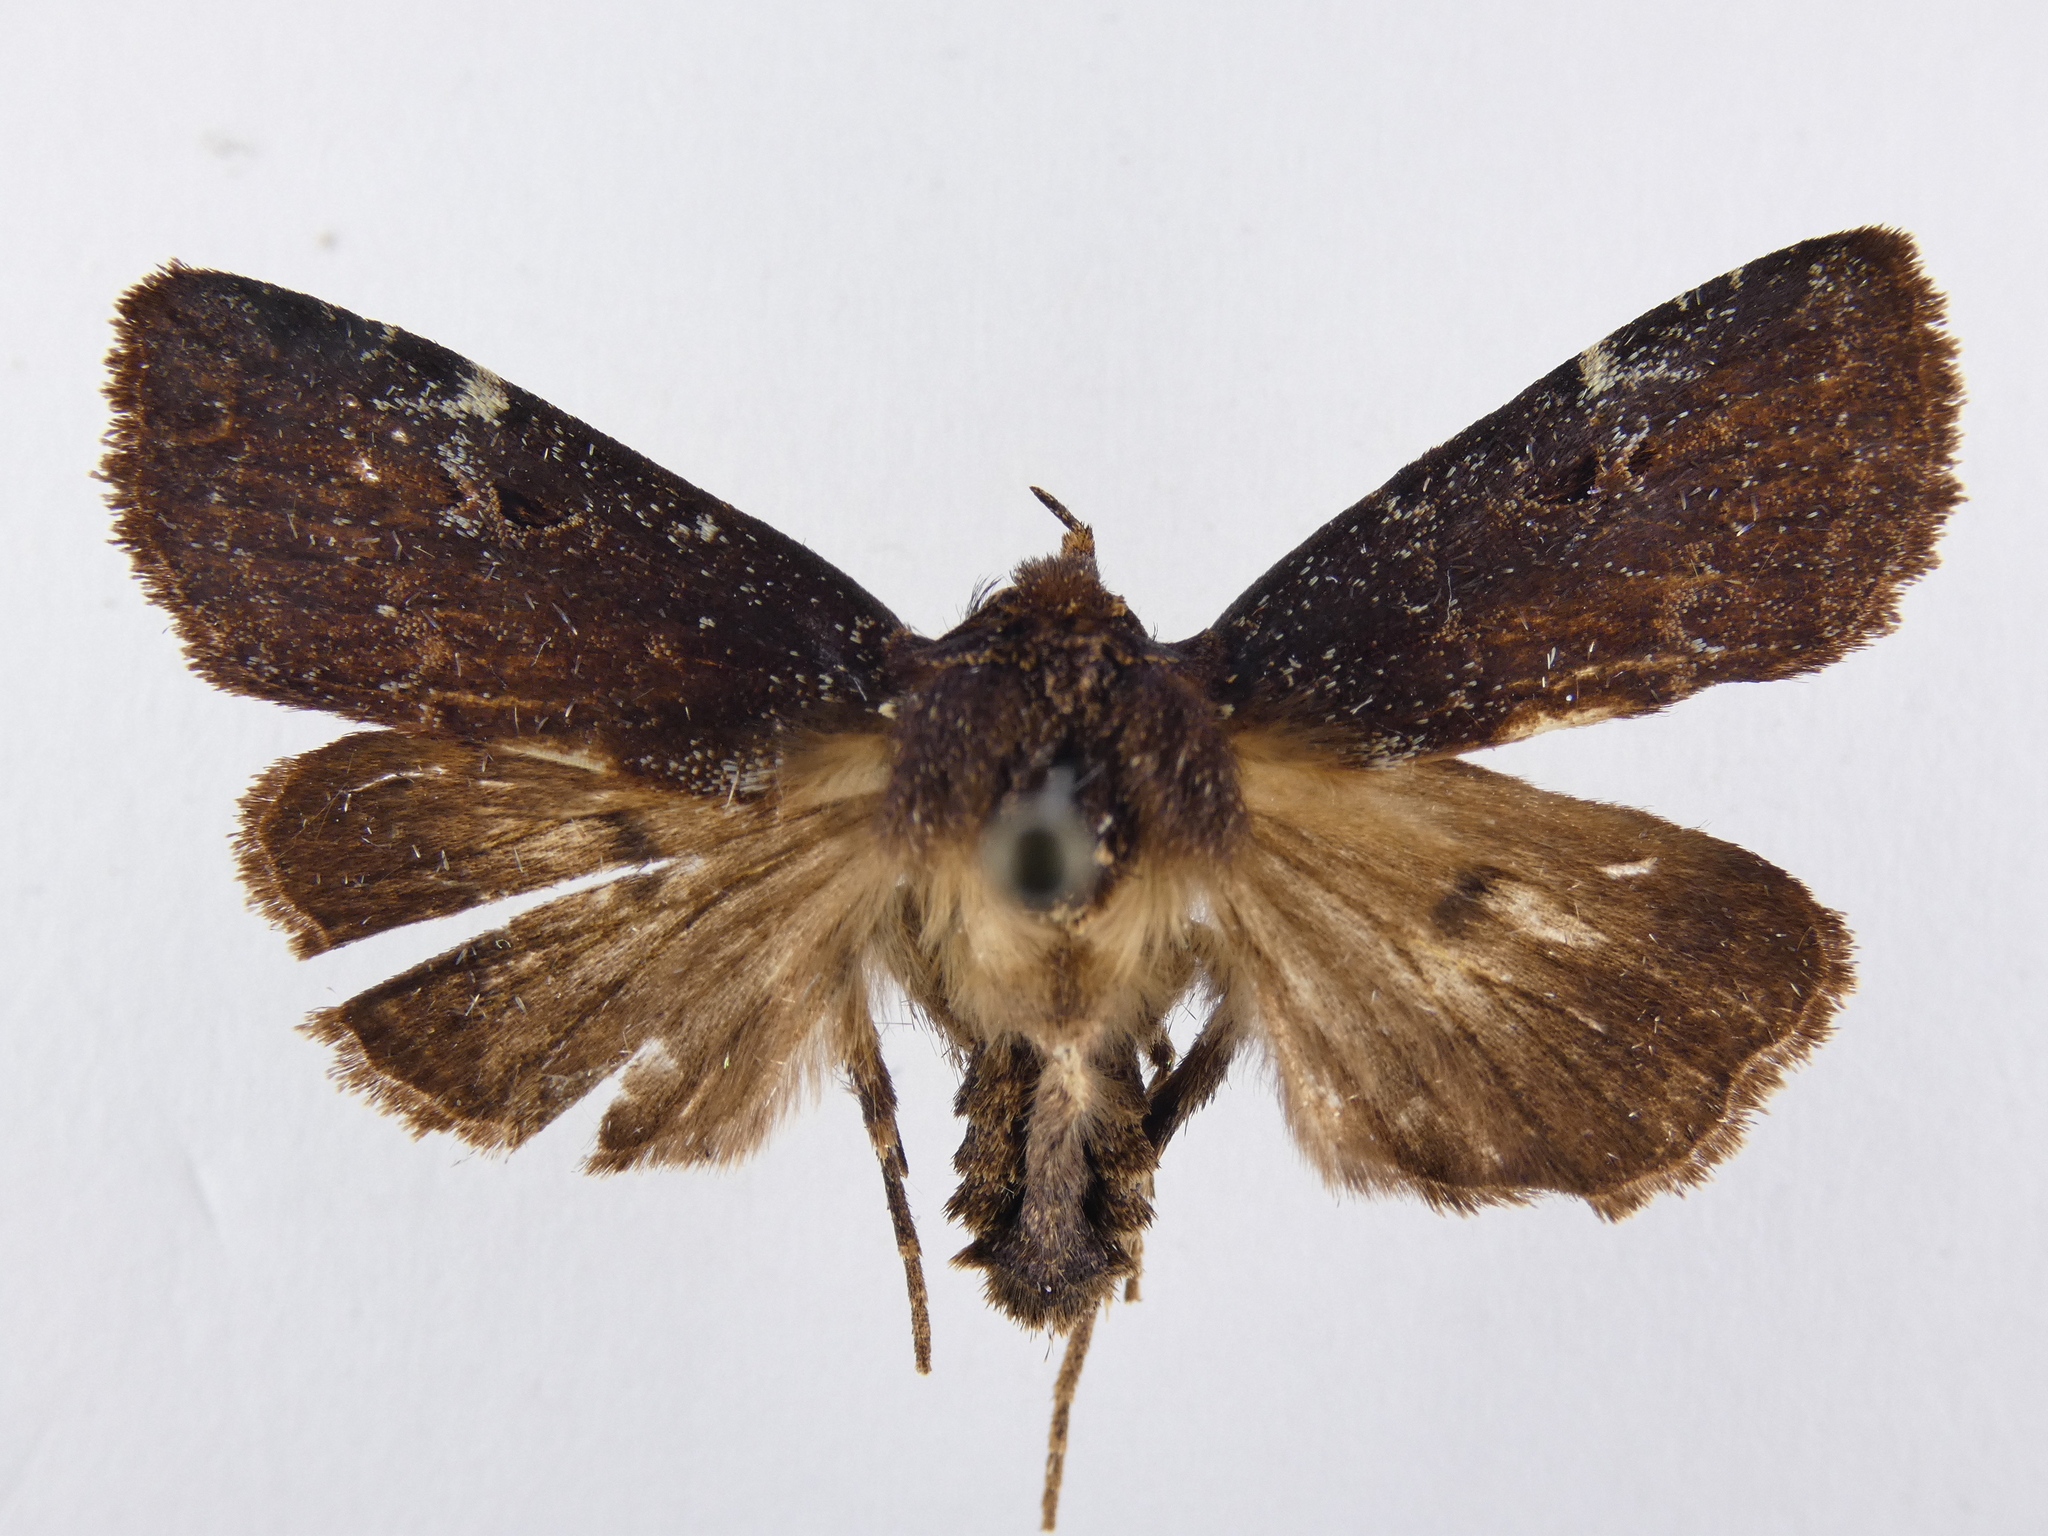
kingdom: Animalia
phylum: Arthropoda
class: Insecta
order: Lepidoptera
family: Noctuidae
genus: Austramathes
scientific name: Austramathes purpurea
